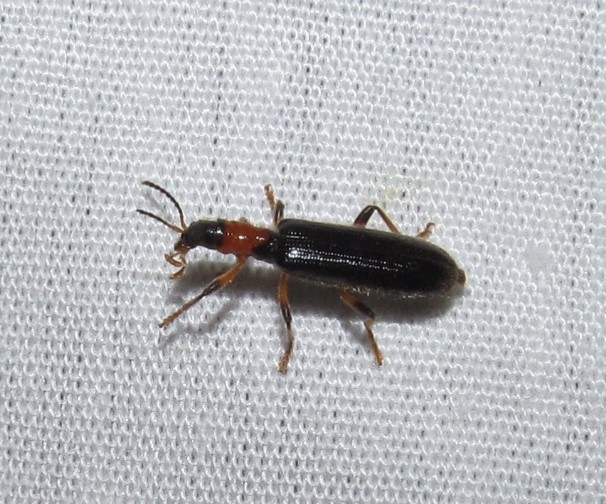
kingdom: Animalia
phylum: Arthropoda
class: Insecta
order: Coleoptera
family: Cleridae
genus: Cymatodera
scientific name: Cymatodera bicolor
